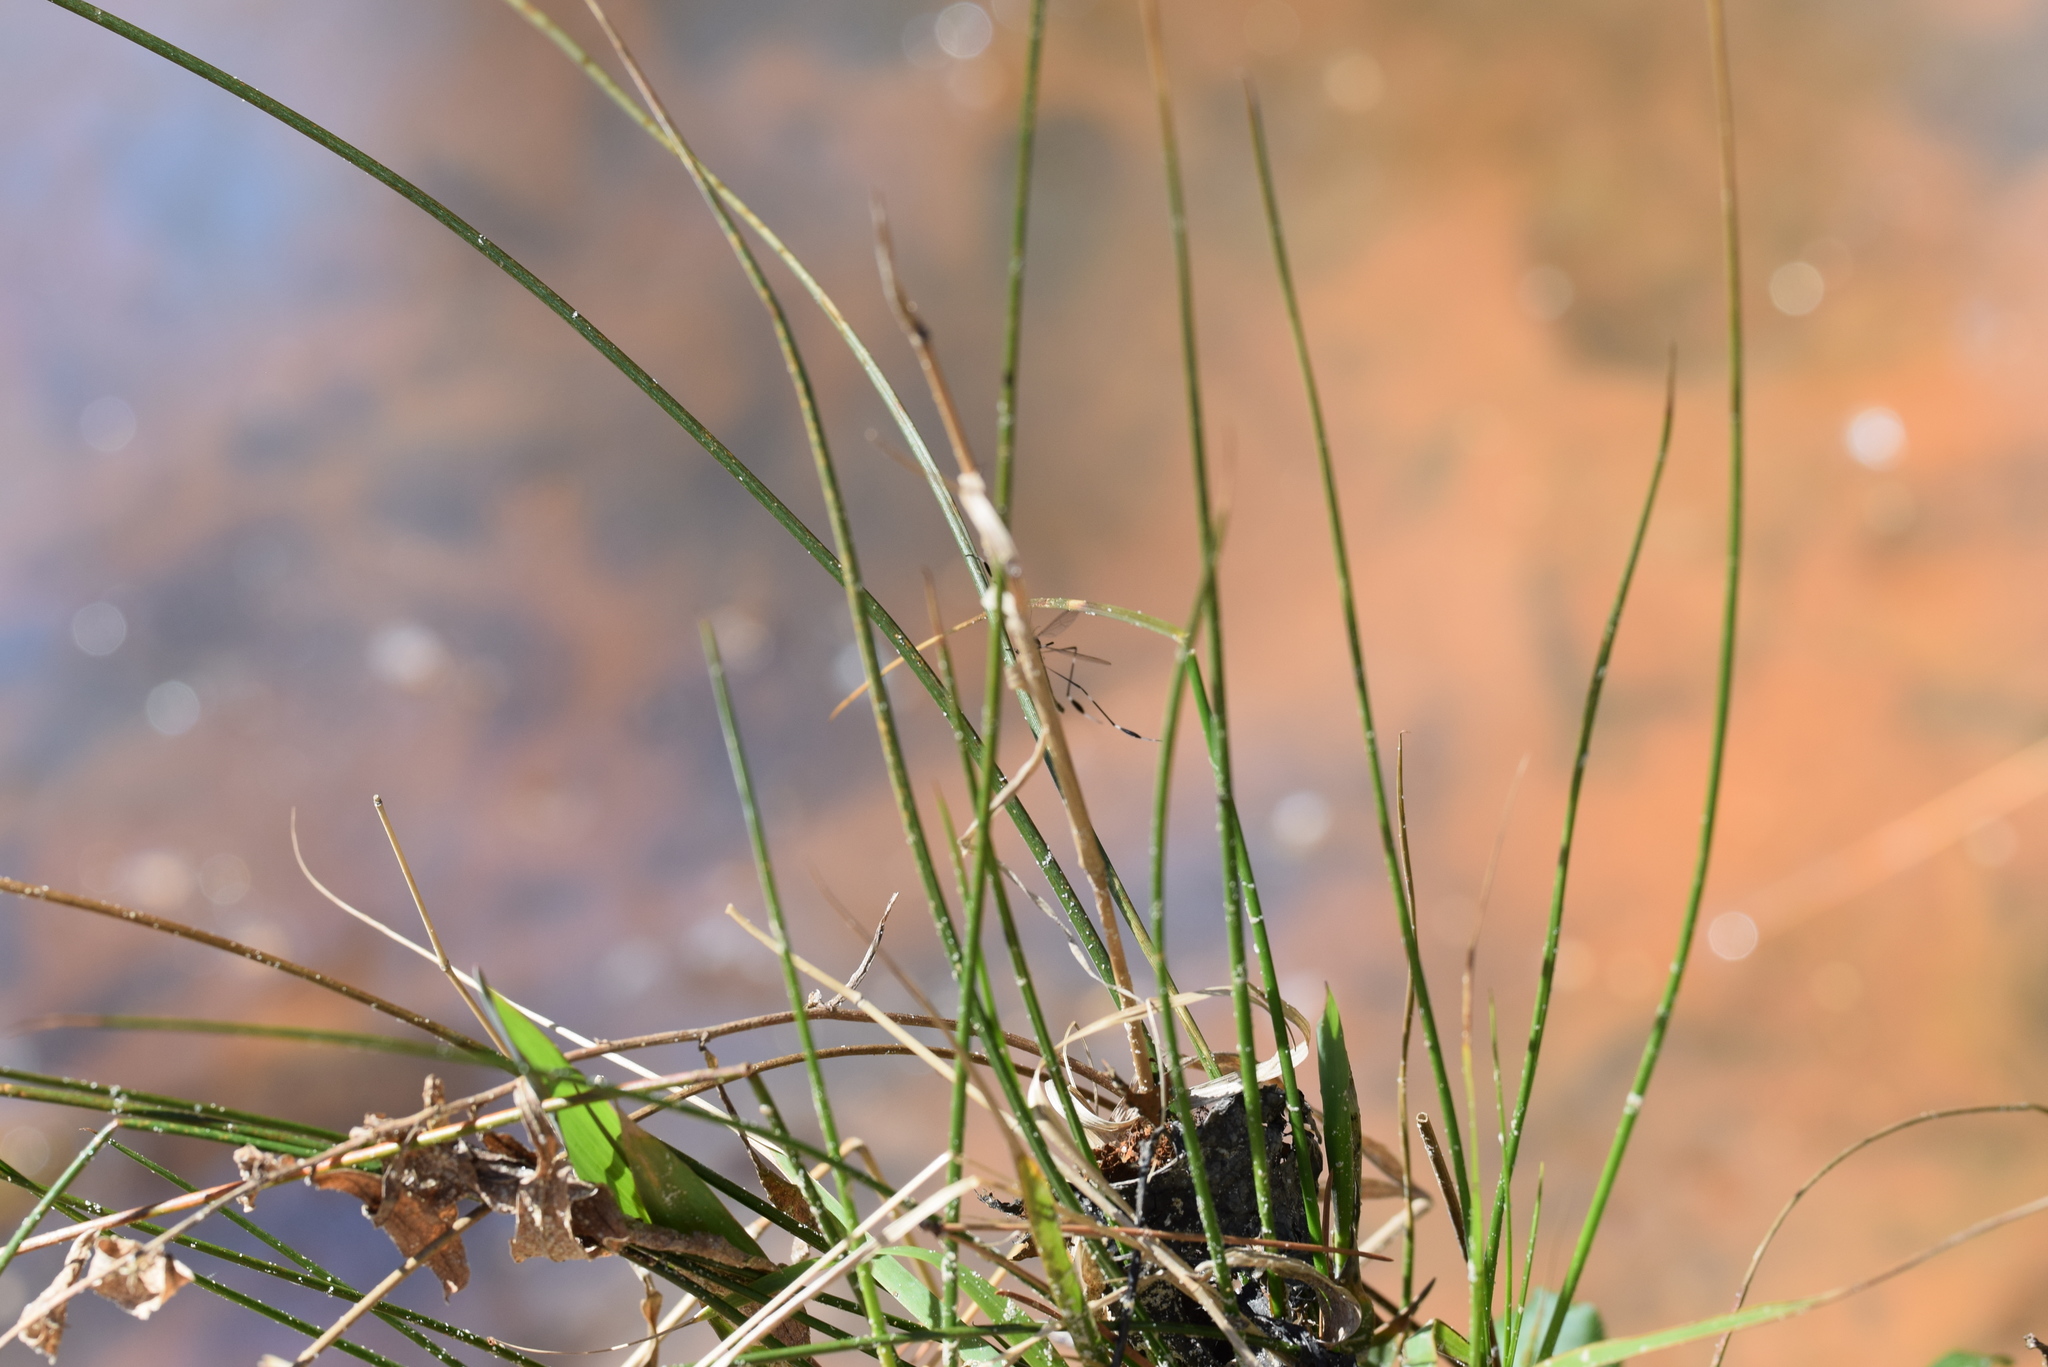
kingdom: Animalia
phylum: Arthropoda
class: Insecta
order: Diptera
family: Ptychopteridae
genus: Bittacomorpha
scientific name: Bittacomorpha clavipes
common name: Eastern phantom crane fly
